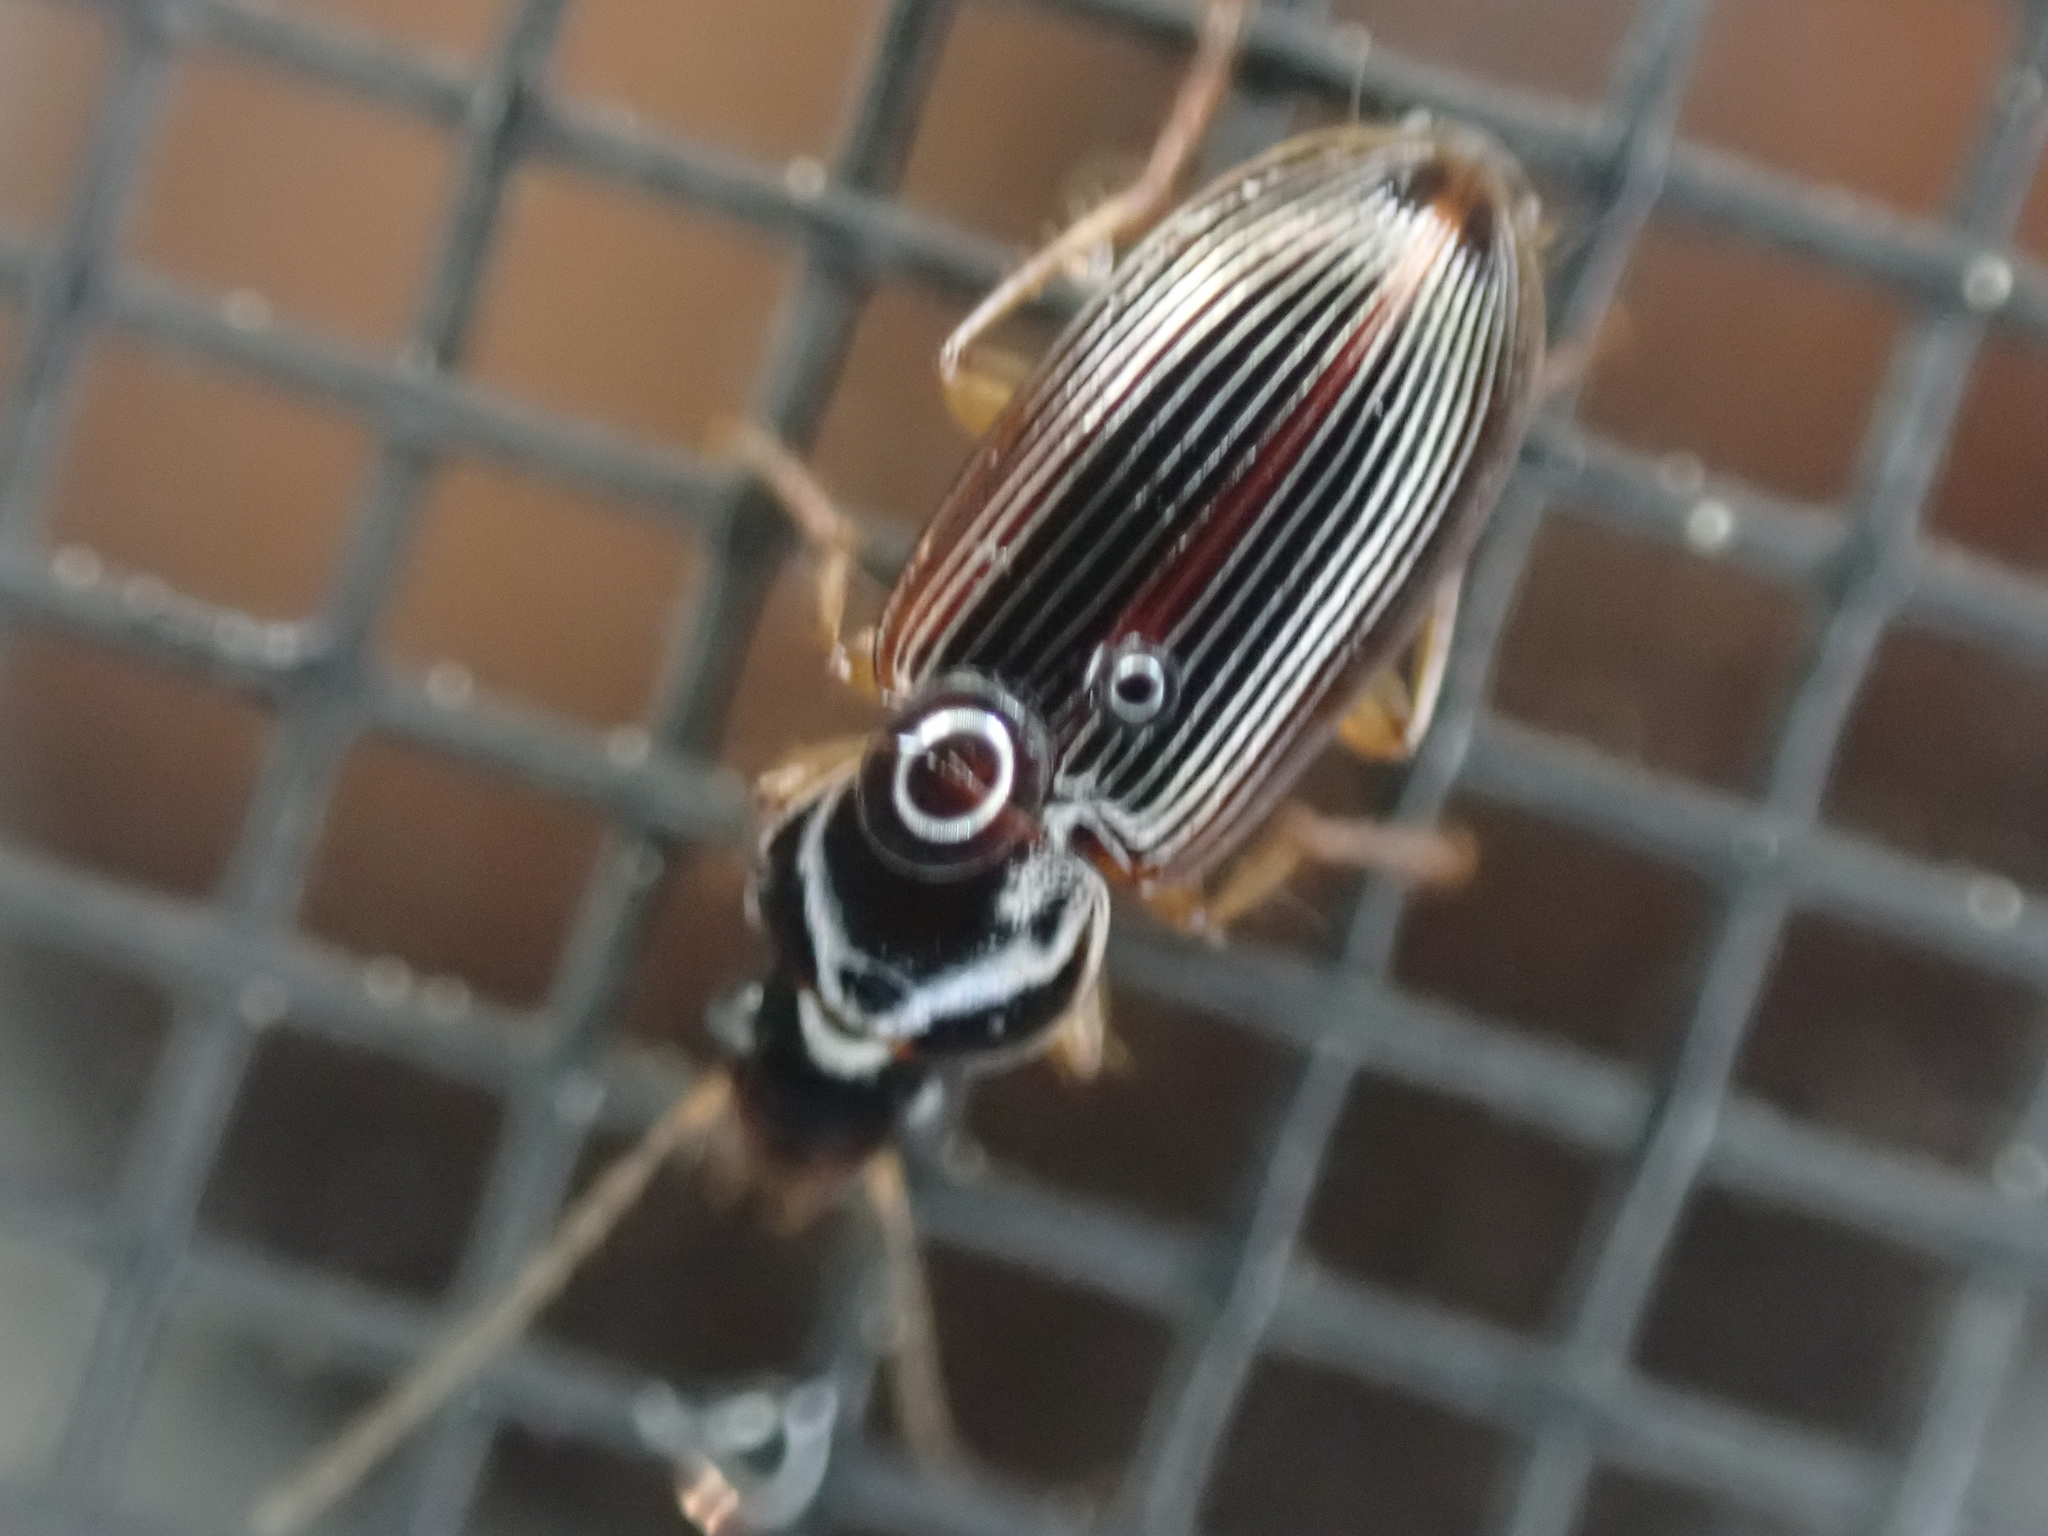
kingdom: Animalia
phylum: Arthropoda
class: Insecta
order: Coleoptera
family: Carabidae
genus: Stenolophus
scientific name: Stenolophus ochropezus
